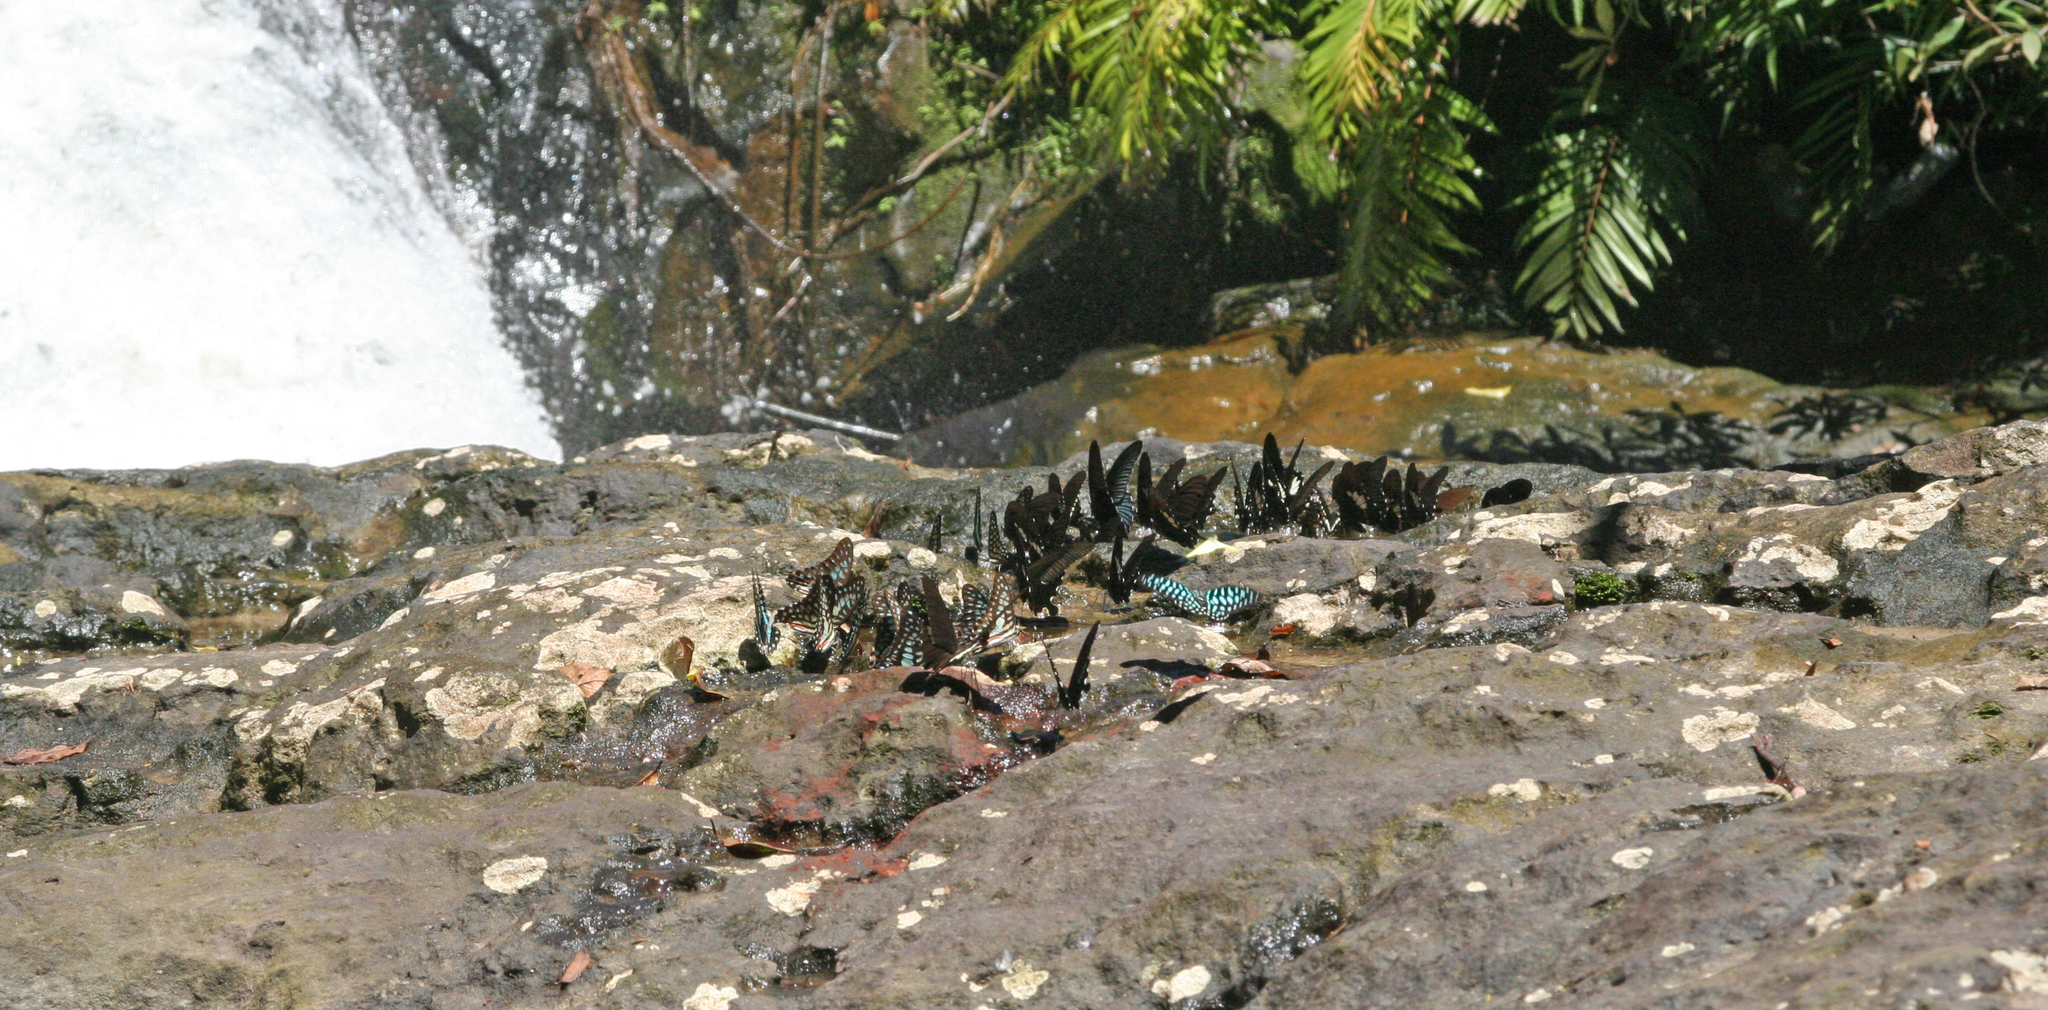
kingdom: Animalia
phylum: Arthropoda
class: Insecta
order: Lepidoptera
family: Papilionidae
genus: Graphium
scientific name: Graphium doson
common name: Common jay
